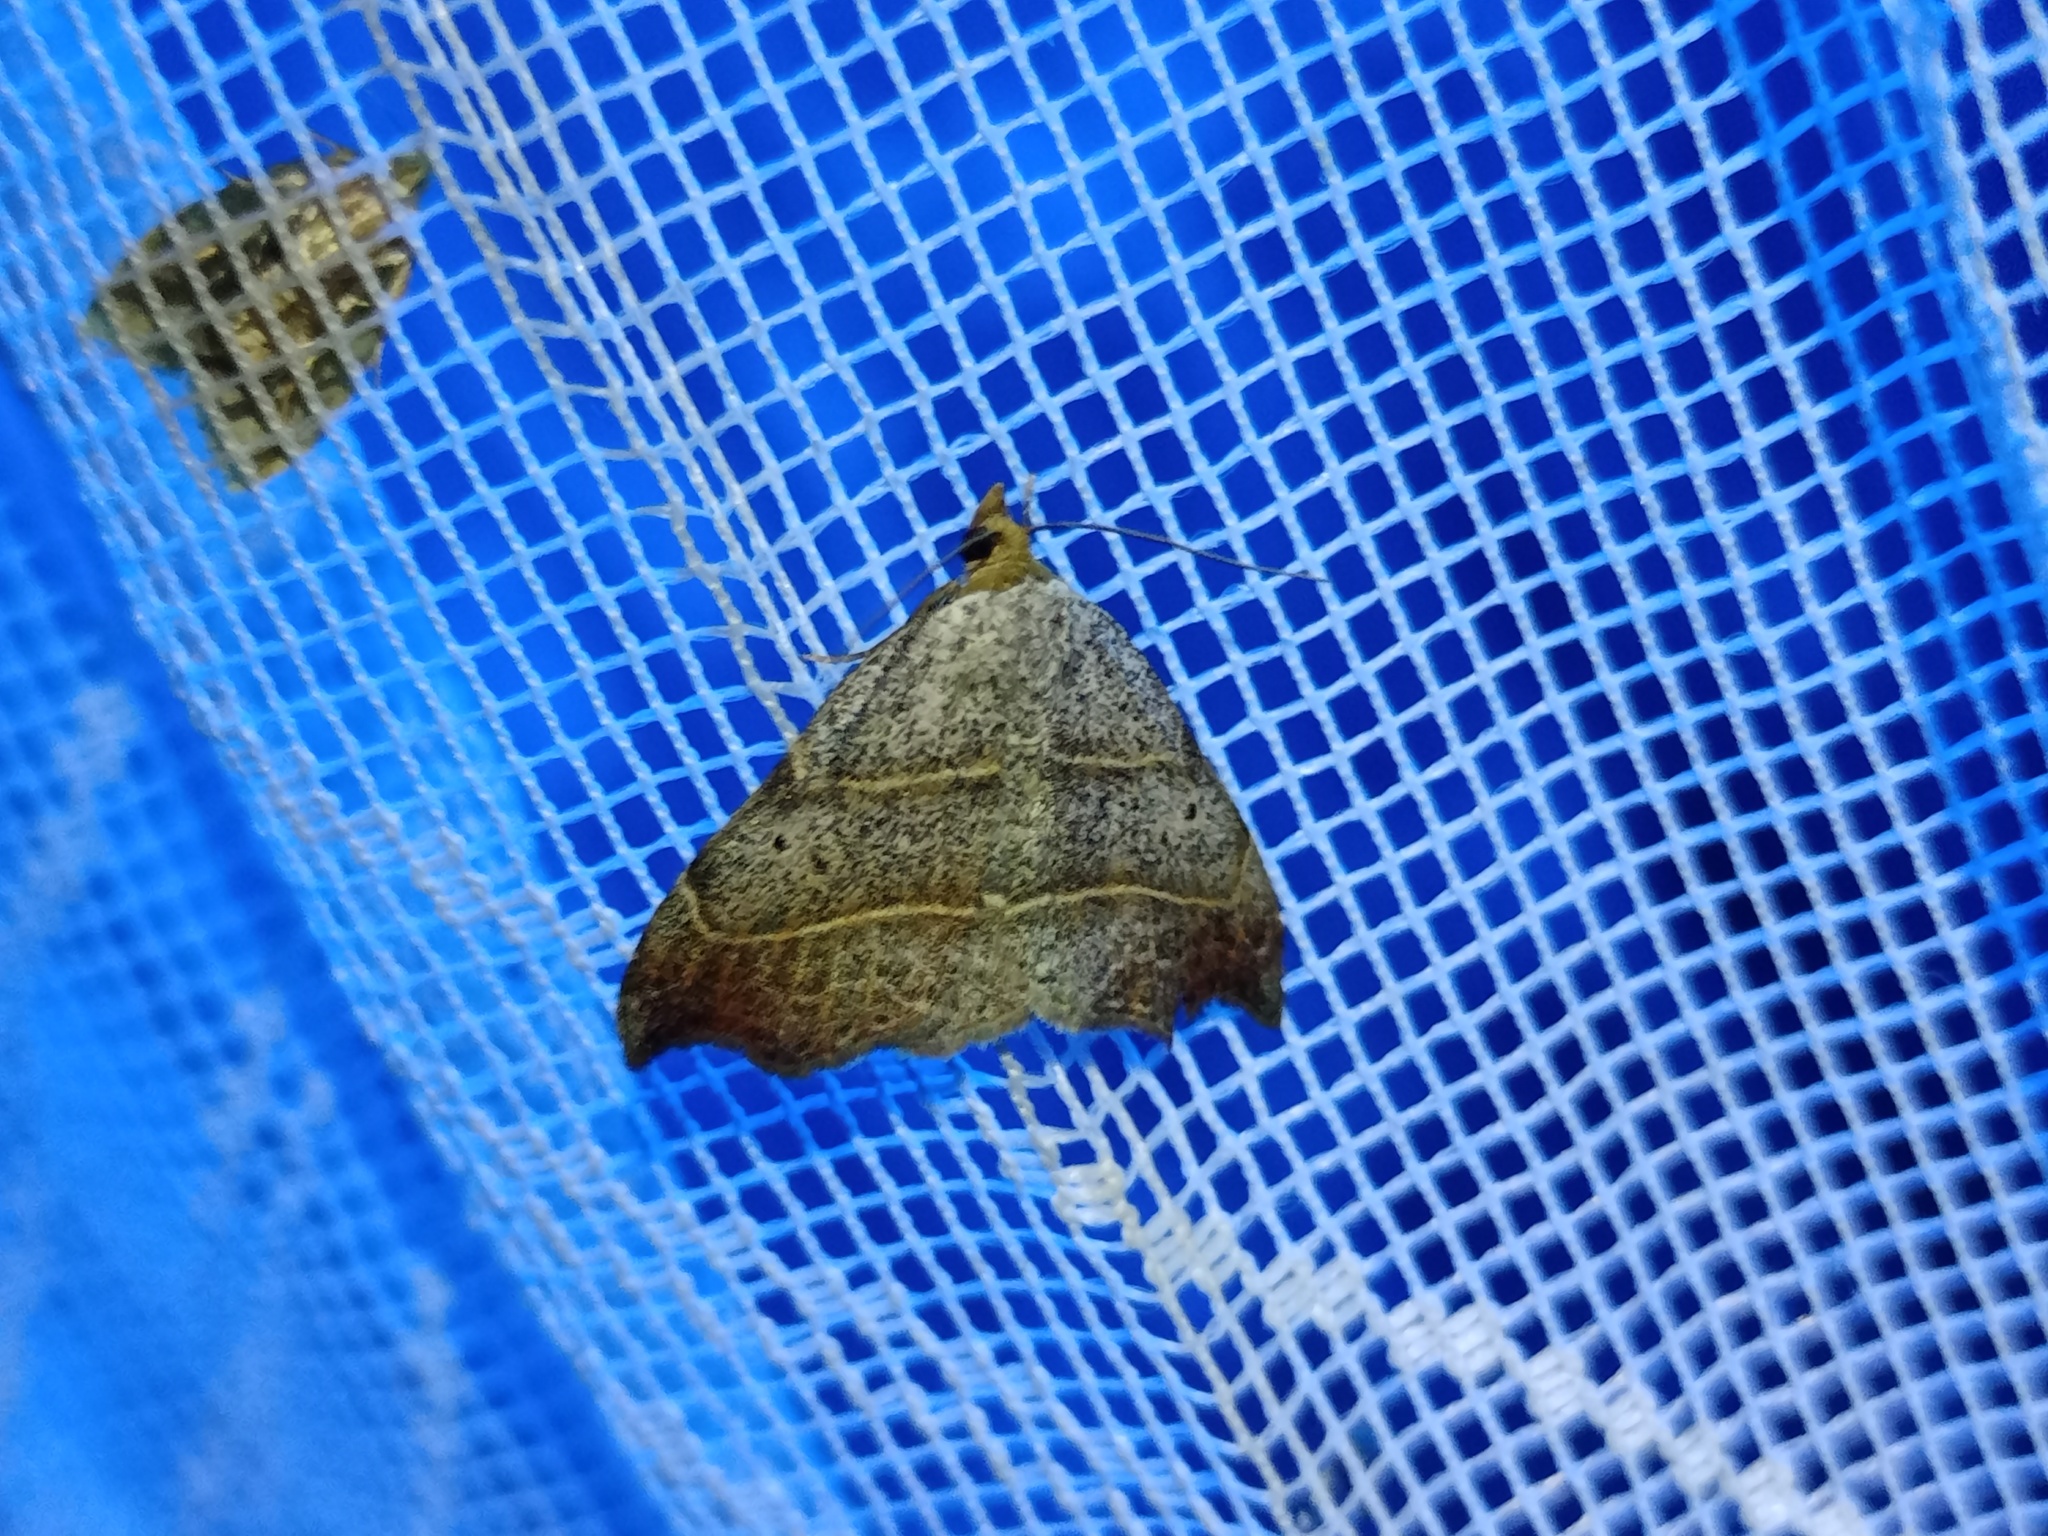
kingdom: Animalia
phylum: Arthropoda
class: Insecta
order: Lepidoptera
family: Erebidae
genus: Laspeyria
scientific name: Laspeyria flexula
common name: Beautiful hook-tip
